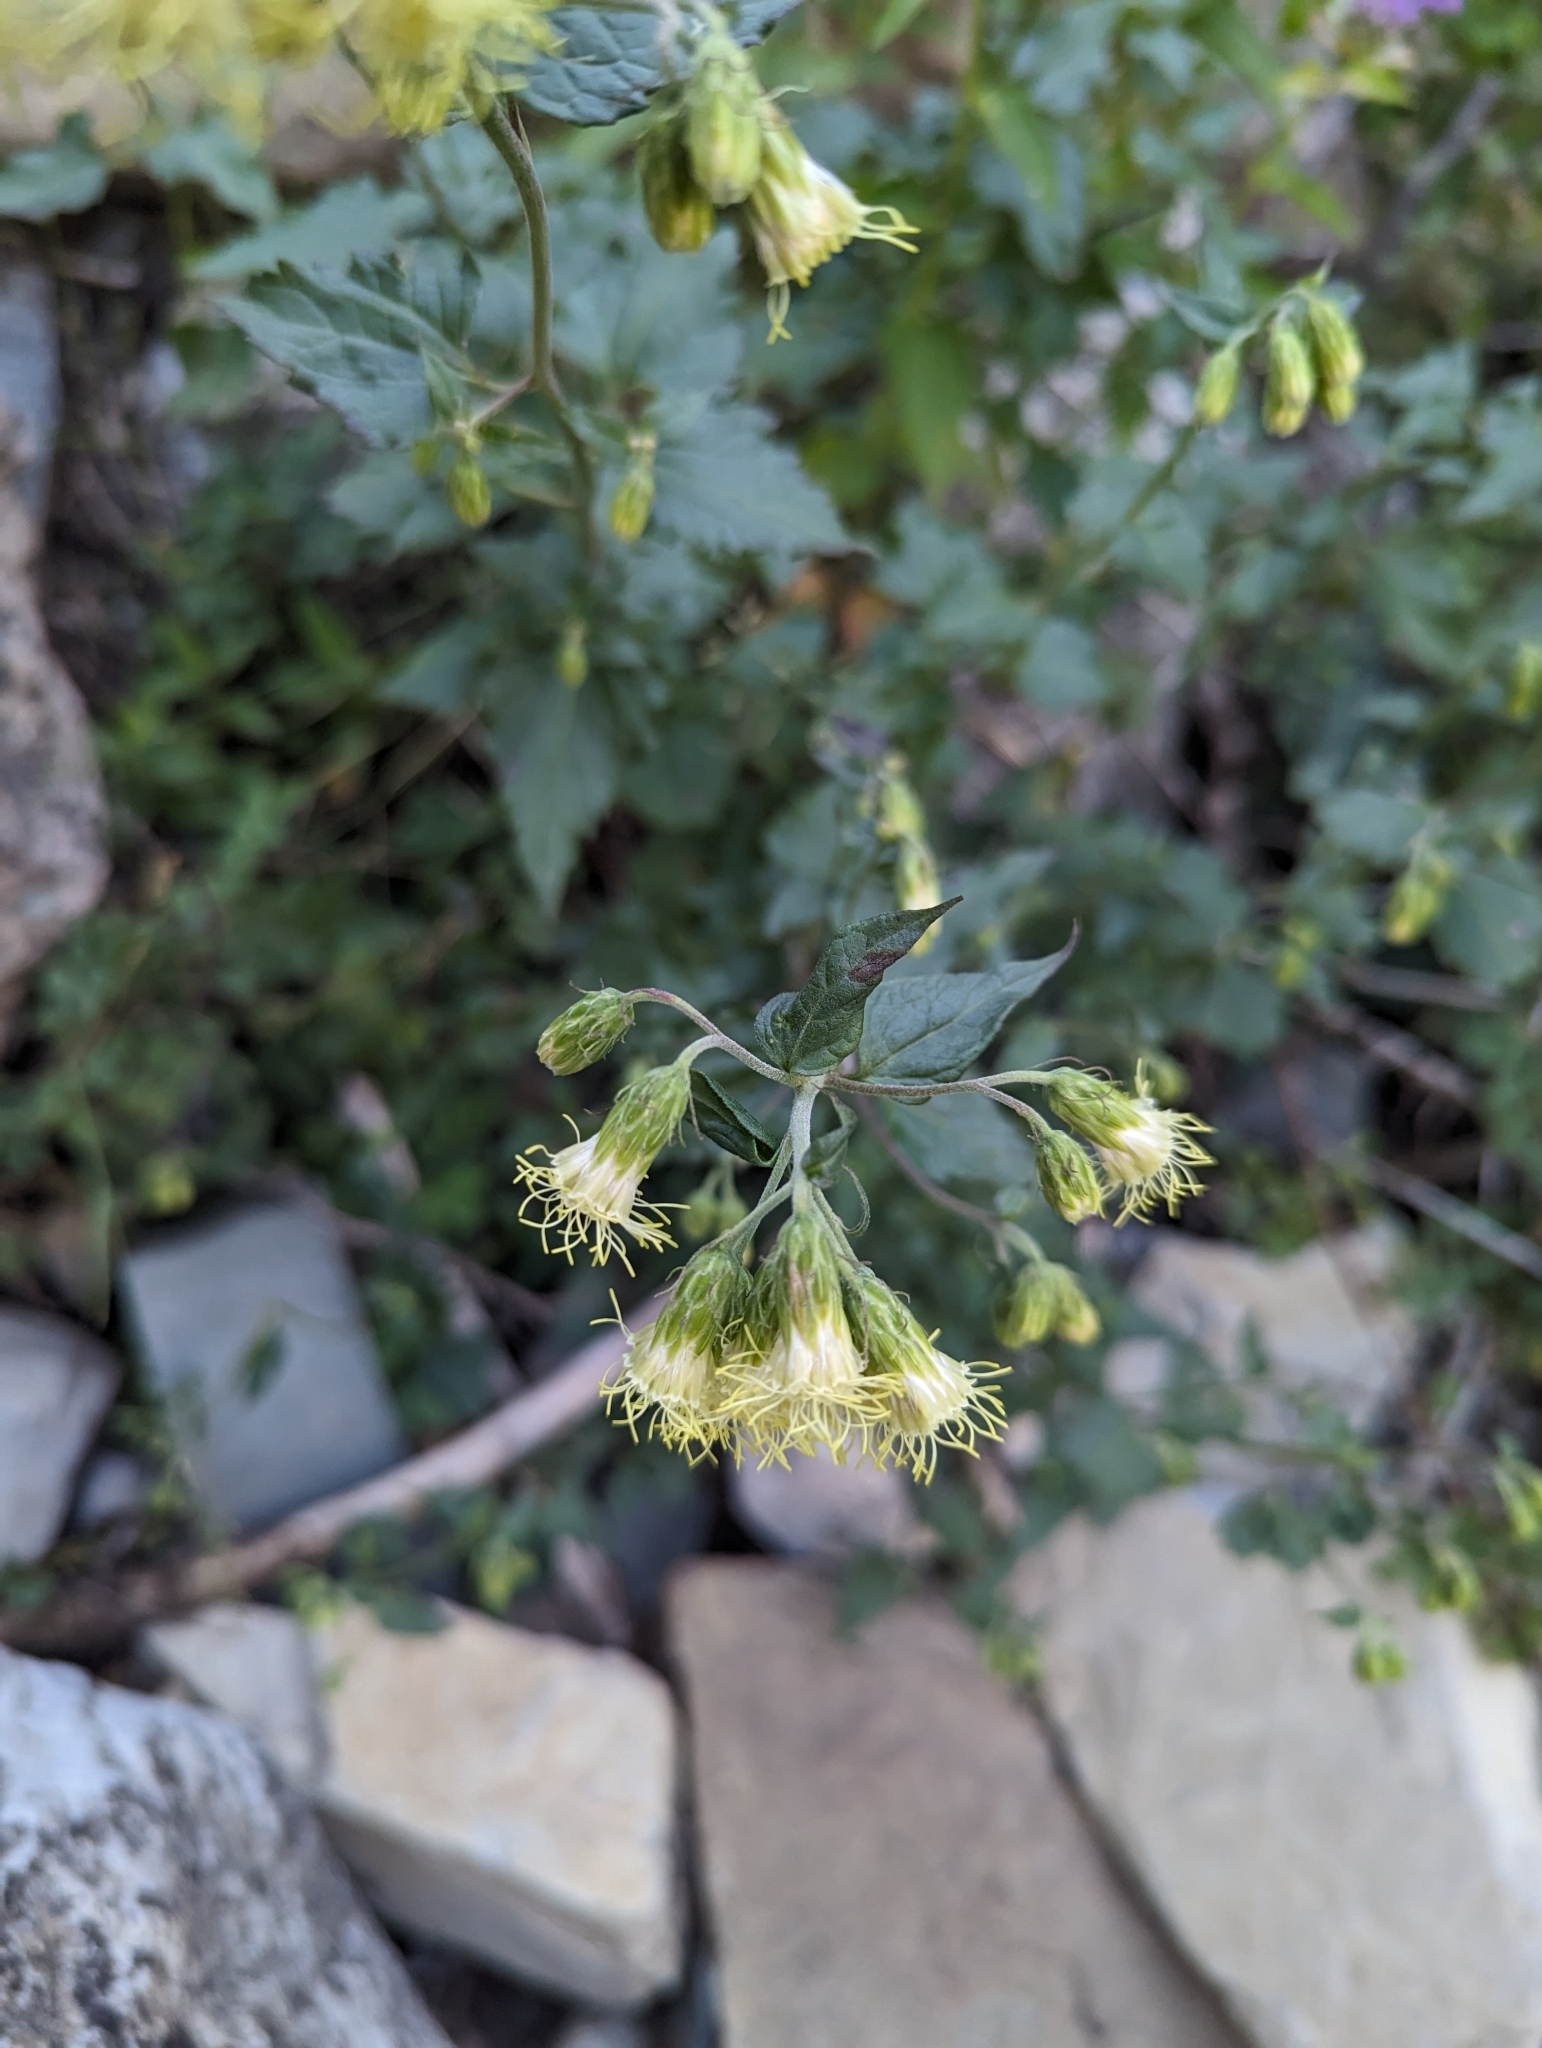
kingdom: Plantae
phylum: Tracheophyta
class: Magnoliopsida
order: Asterales
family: Asteraceae
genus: Brickellia
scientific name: Brickellia grandiflora
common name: Large-flowered brickellia
